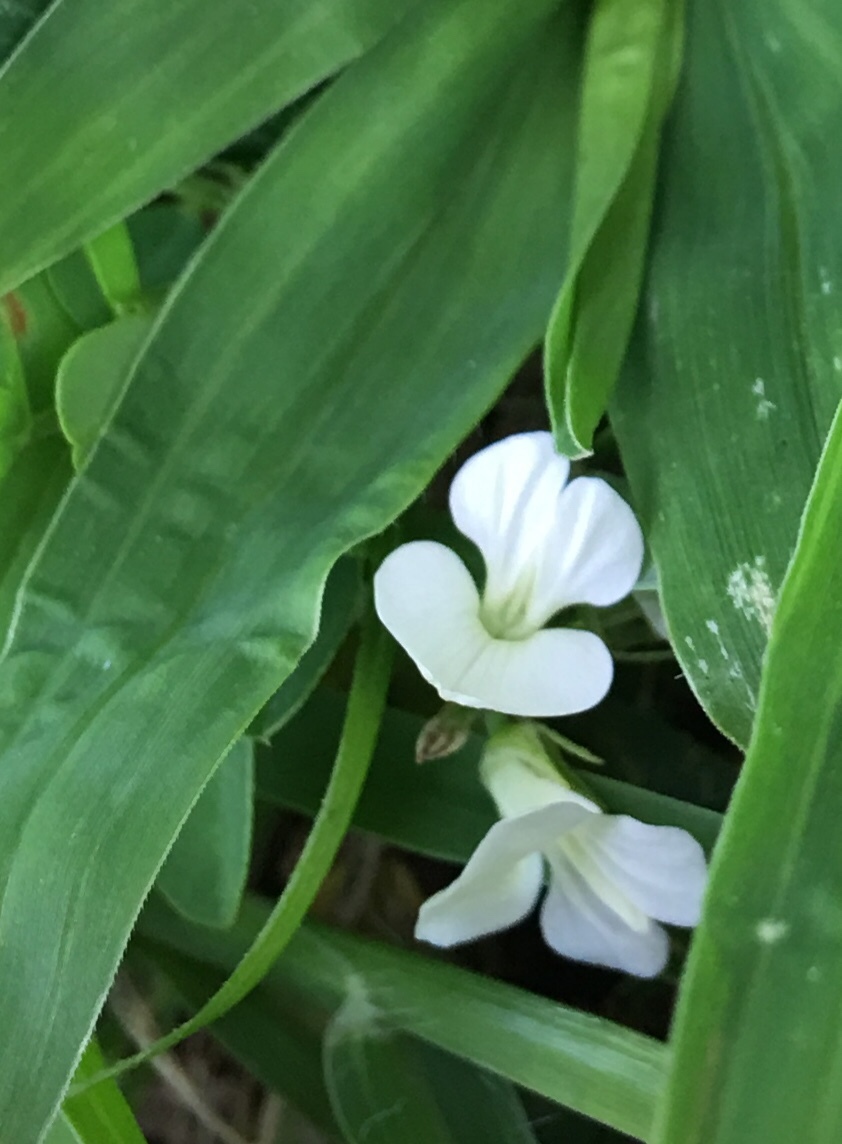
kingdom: Plantae
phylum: Tracheophyta
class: Magnoliopsida
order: Fabales
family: Fabaceae
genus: Alysicarpus
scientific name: Alysicarpus vaginalis
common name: White moneywort
